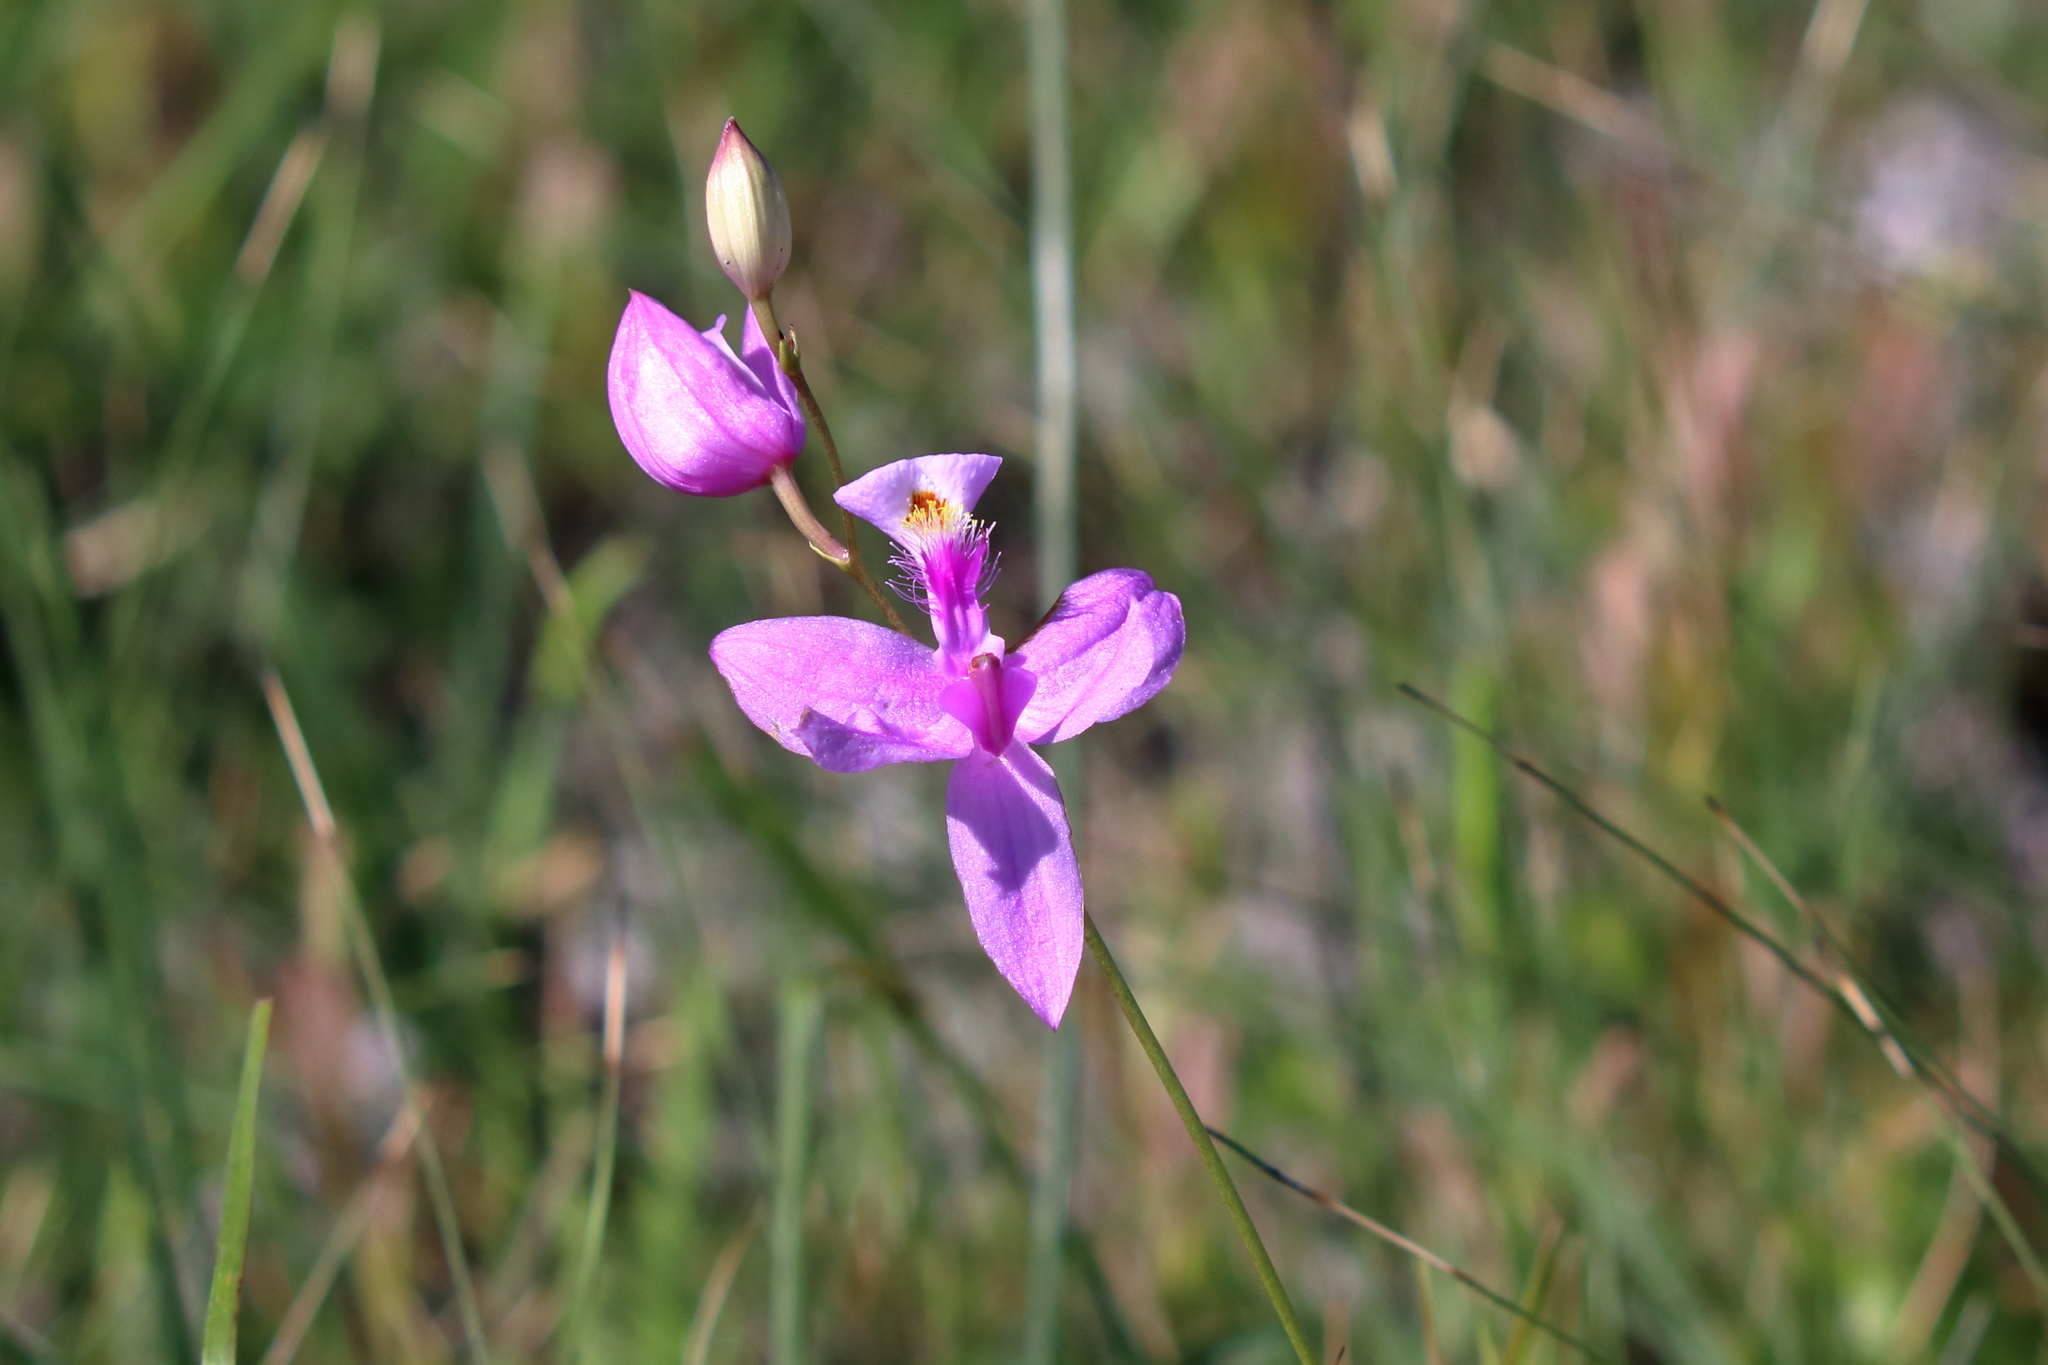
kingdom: Plantae
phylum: Tracheophyta
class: Liliopsida
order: Asparagales
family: Orchidaceae
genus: Calopogon
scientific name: Calopogon tuberosus
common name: Grass-pink
